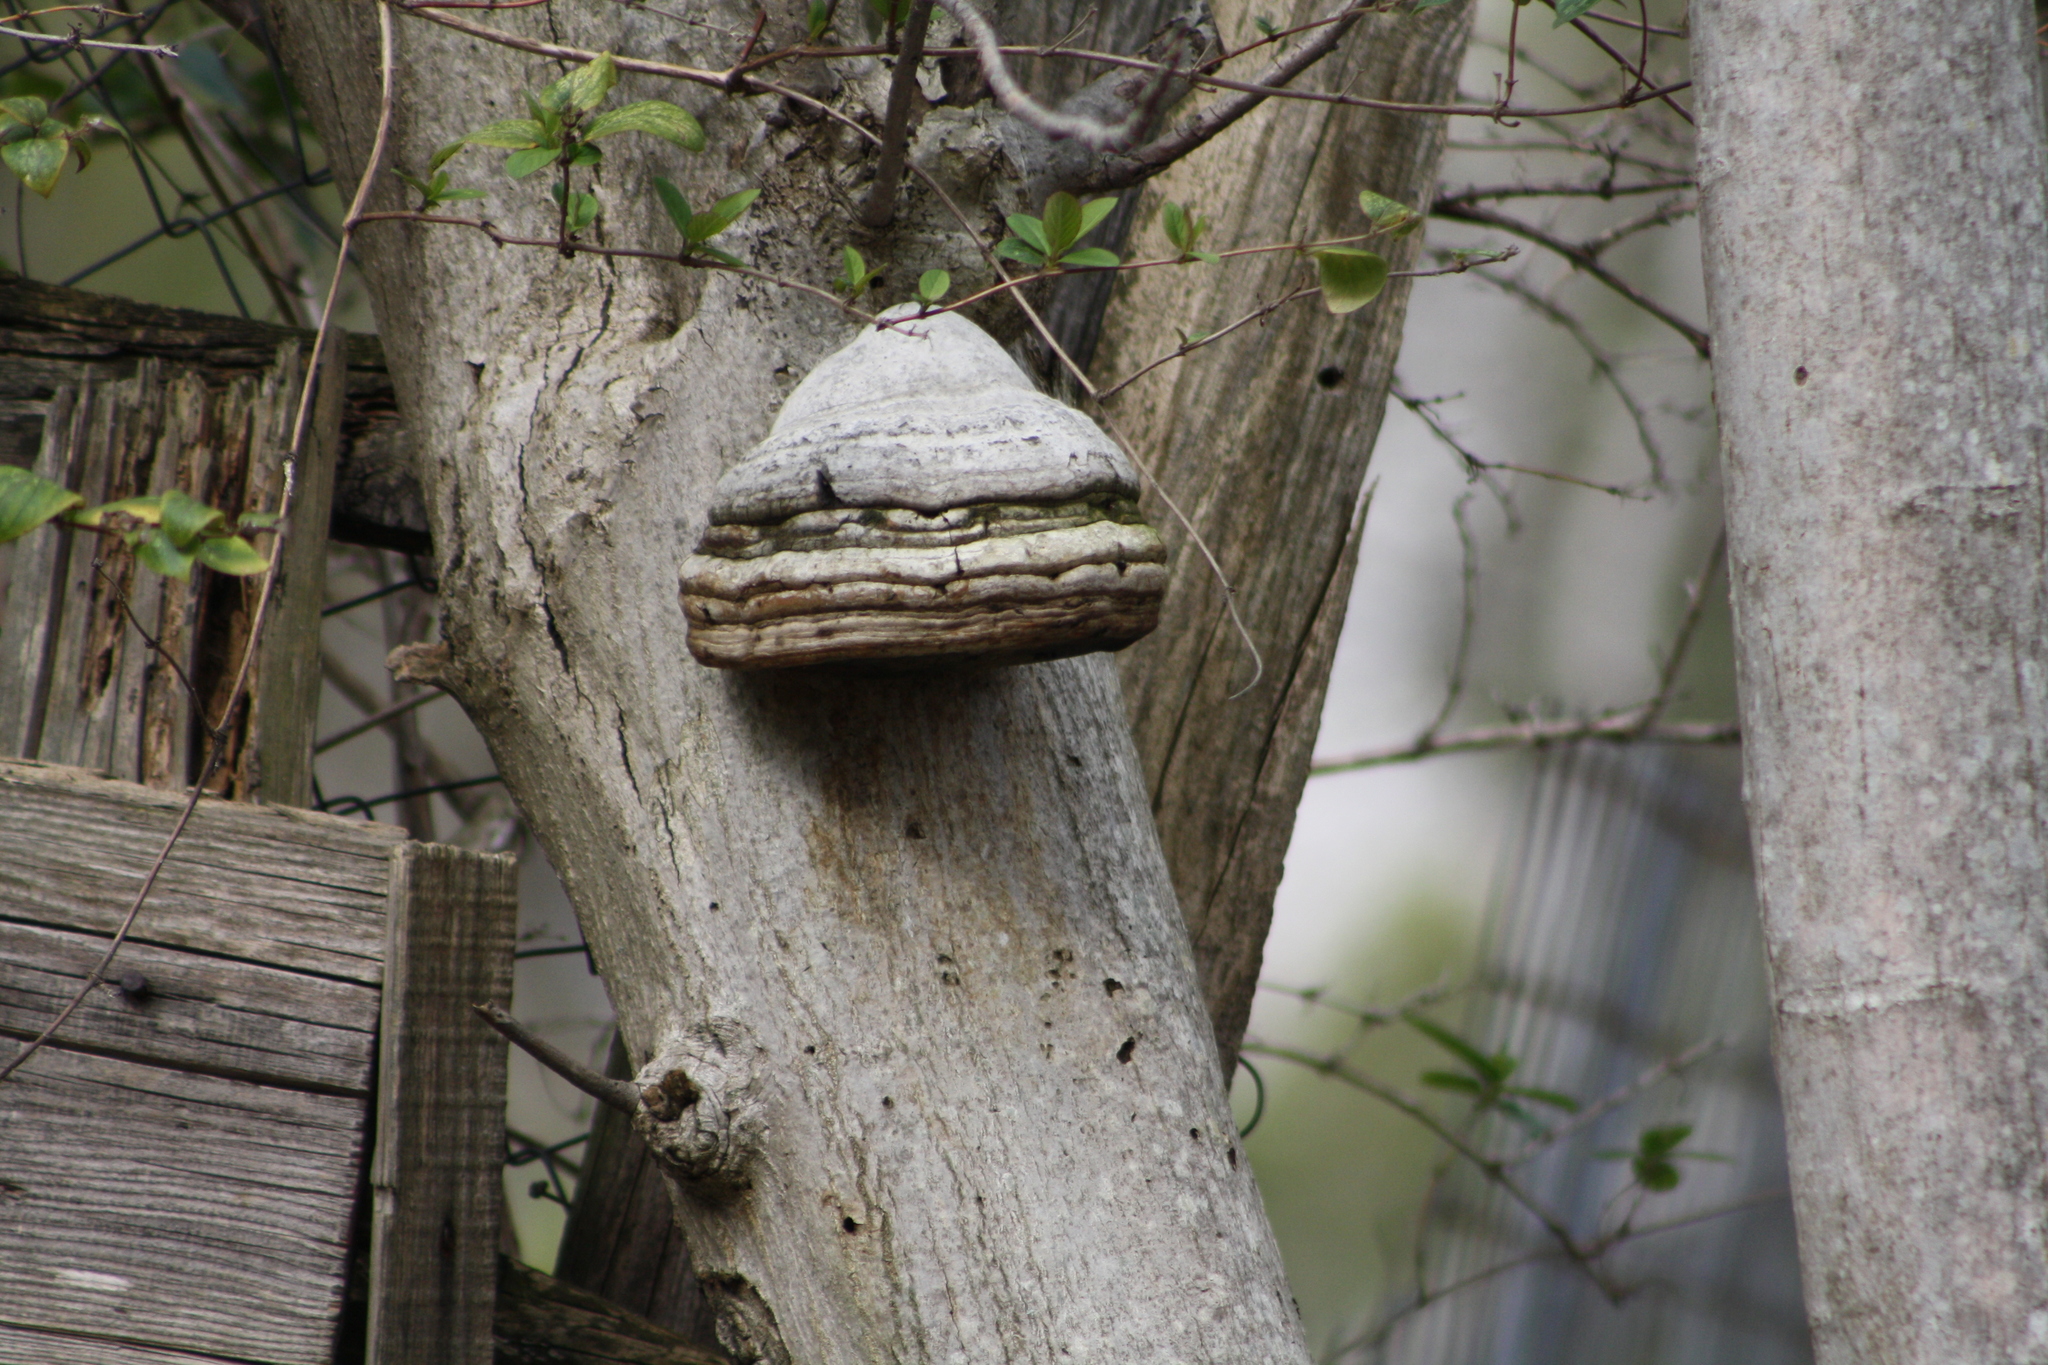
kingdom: Fungi
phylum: Basidiomycota
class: Agaricomycetes
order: Polyporales
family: Polyporaceae
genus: Fomes
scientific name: Fomes fomentarius
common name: Hoof fungus
